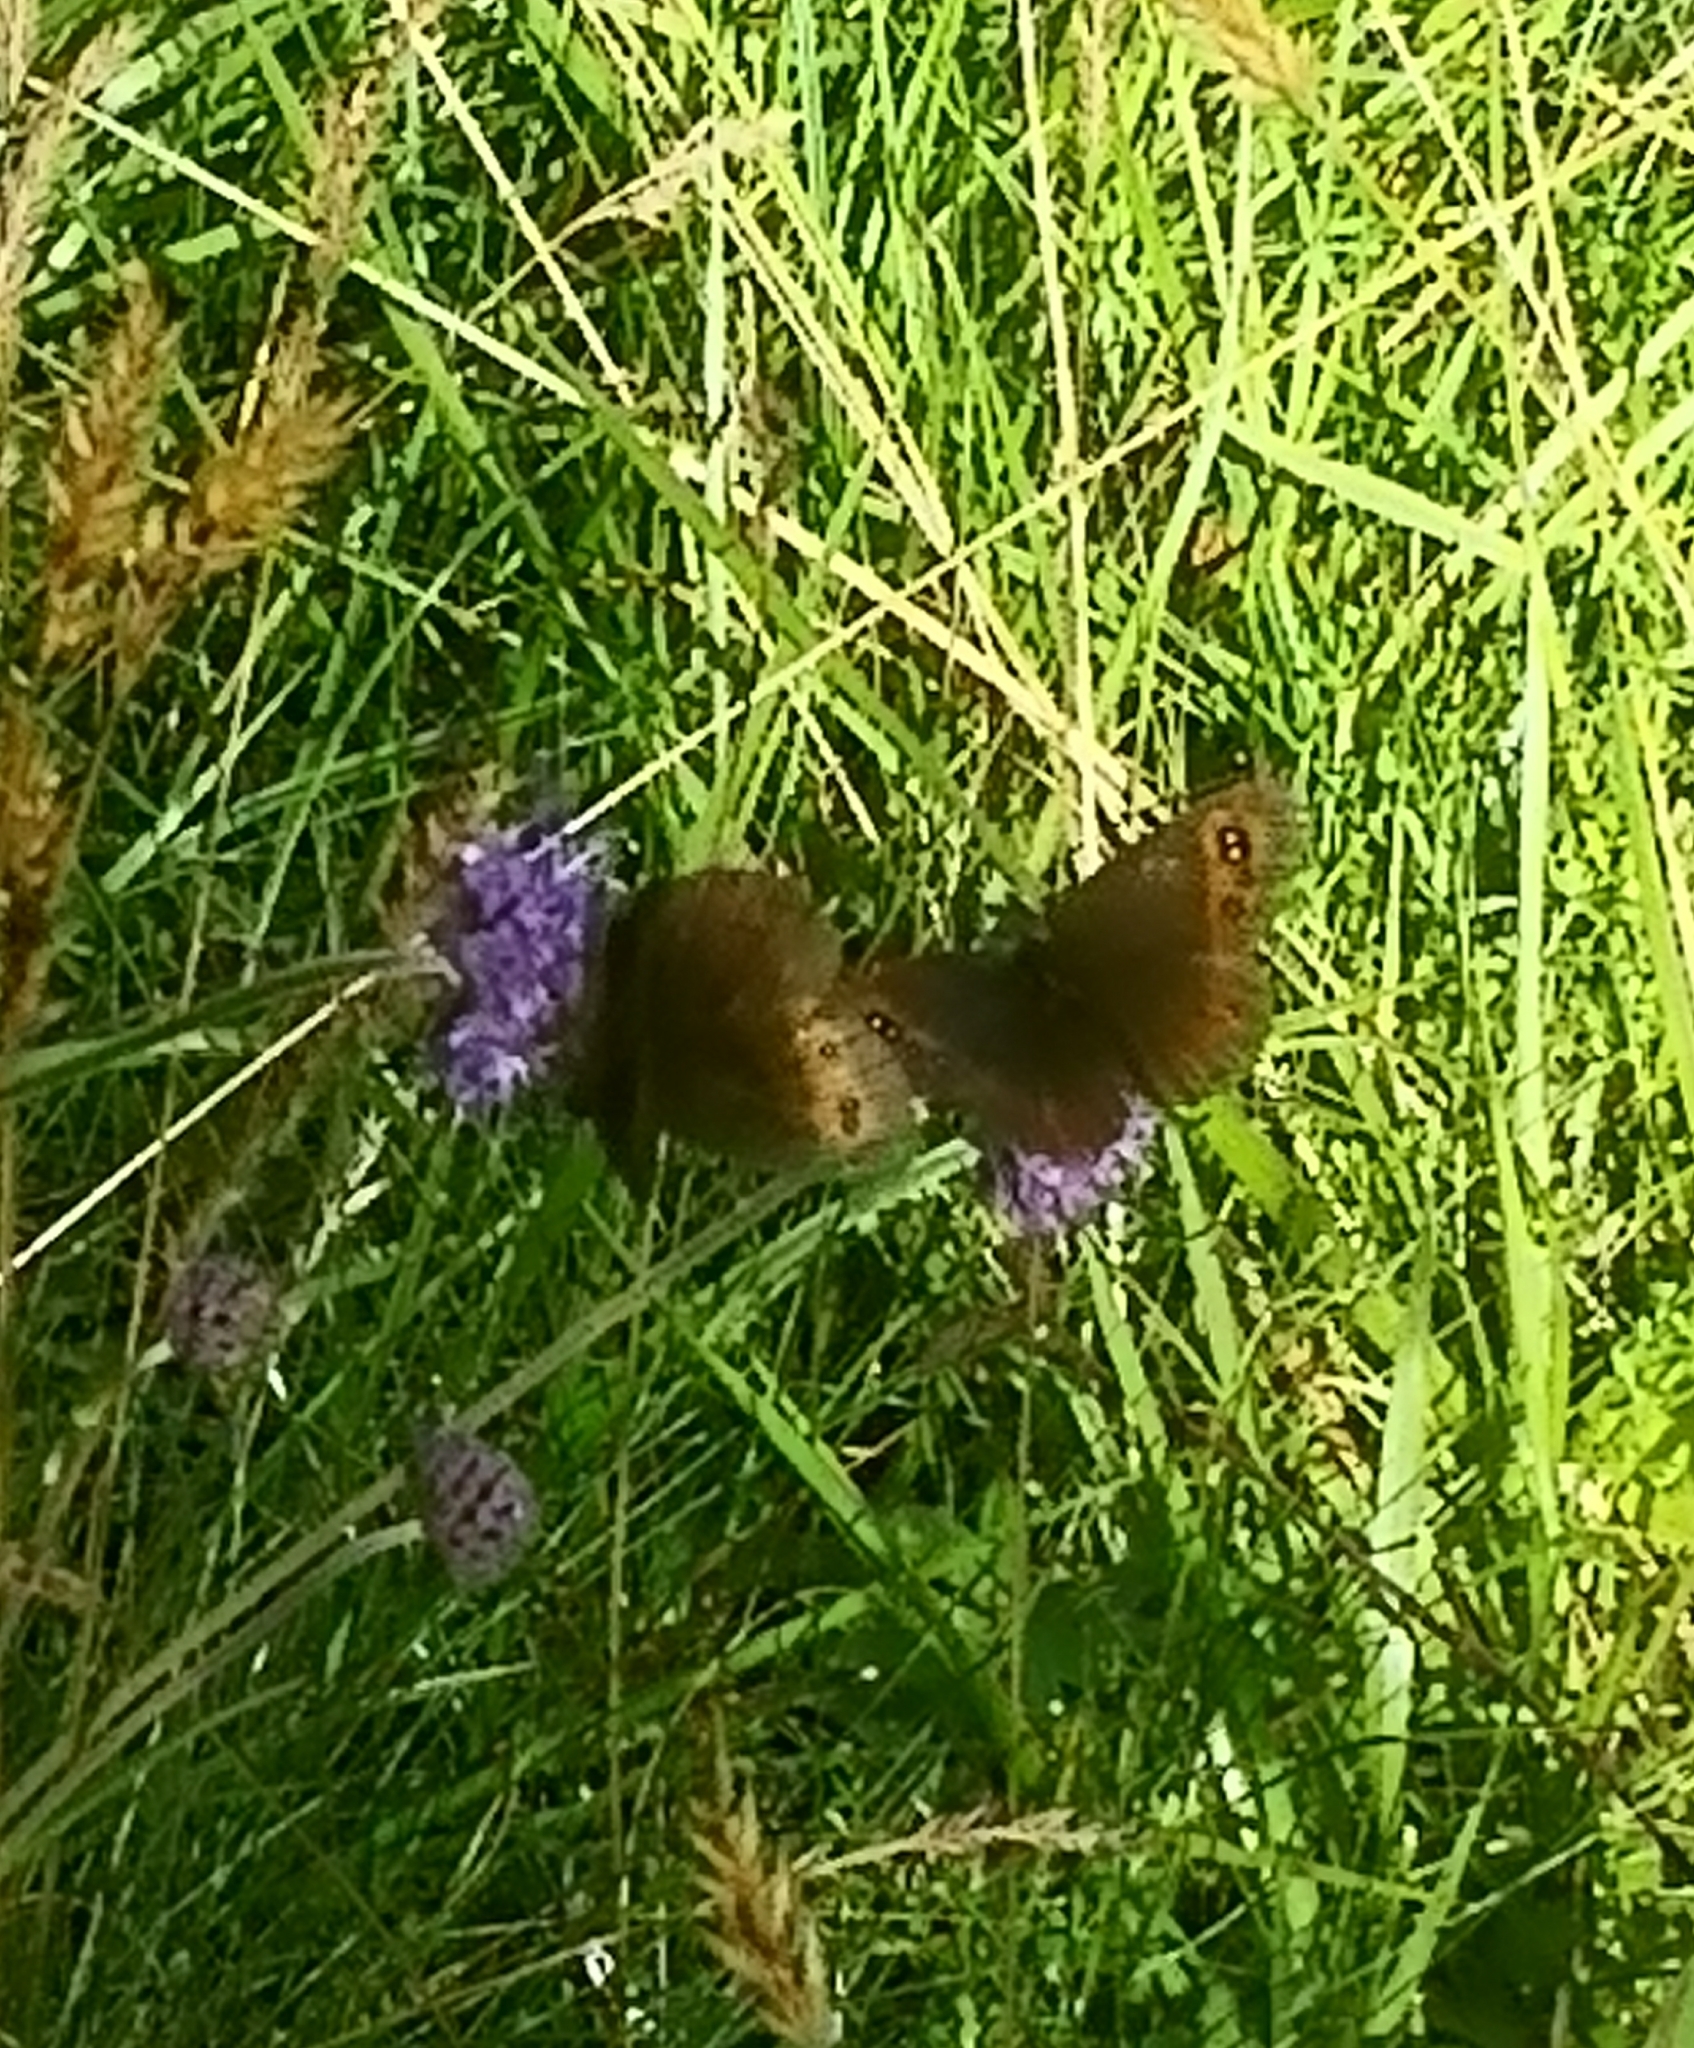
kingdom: Animalia
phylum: Arthropoda
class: Insecta
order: Lepidoptera
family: Nymphalidae
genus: Erebia
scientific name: Erebia aethiops
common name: Scotch argus
